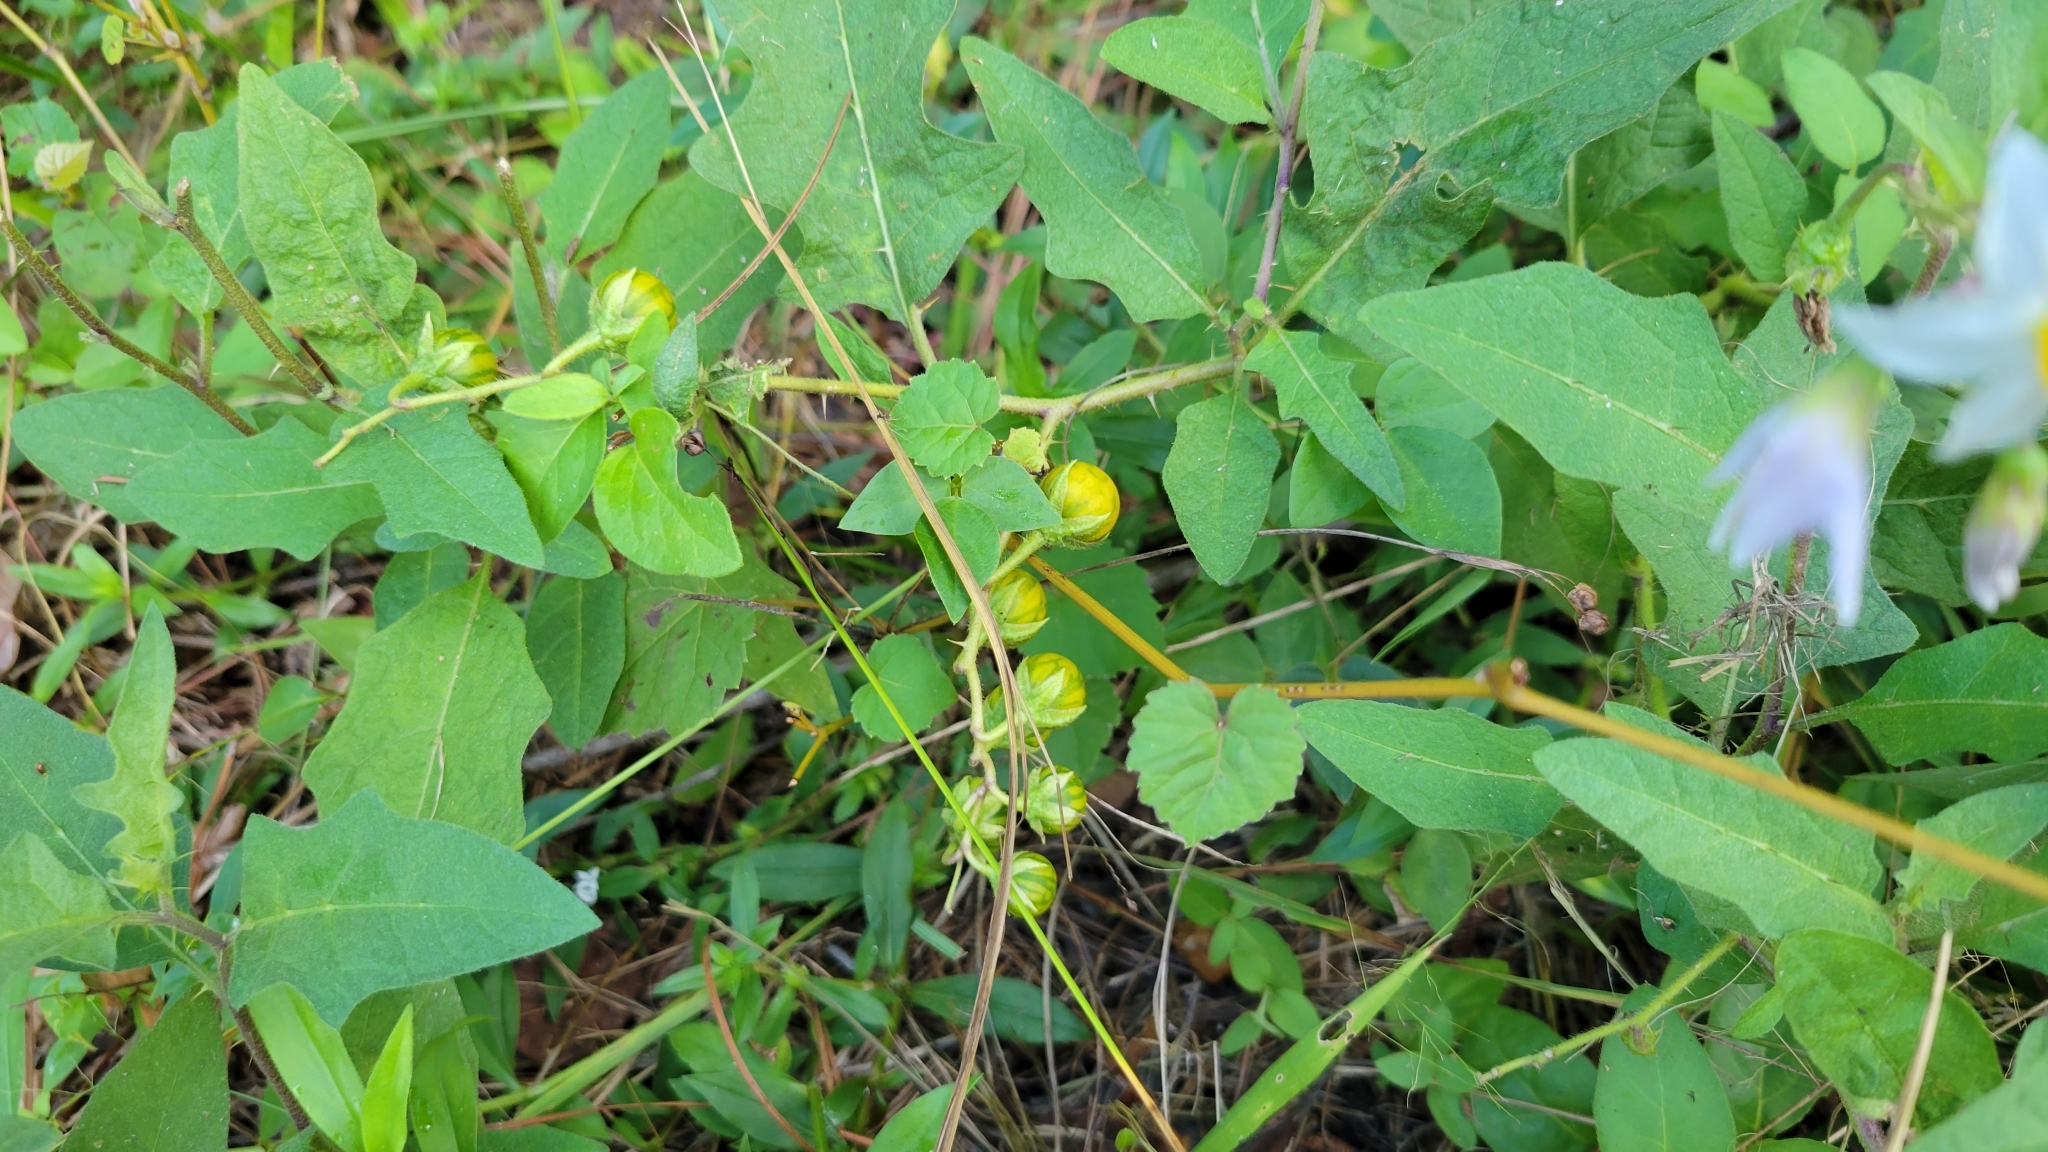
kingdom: Plantae
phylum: Tracheophyta
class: Magnoliopsida
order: Solanales
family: Solanaceae
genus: Solanum
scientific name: Solanum carolinense
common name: Horse-nettle
